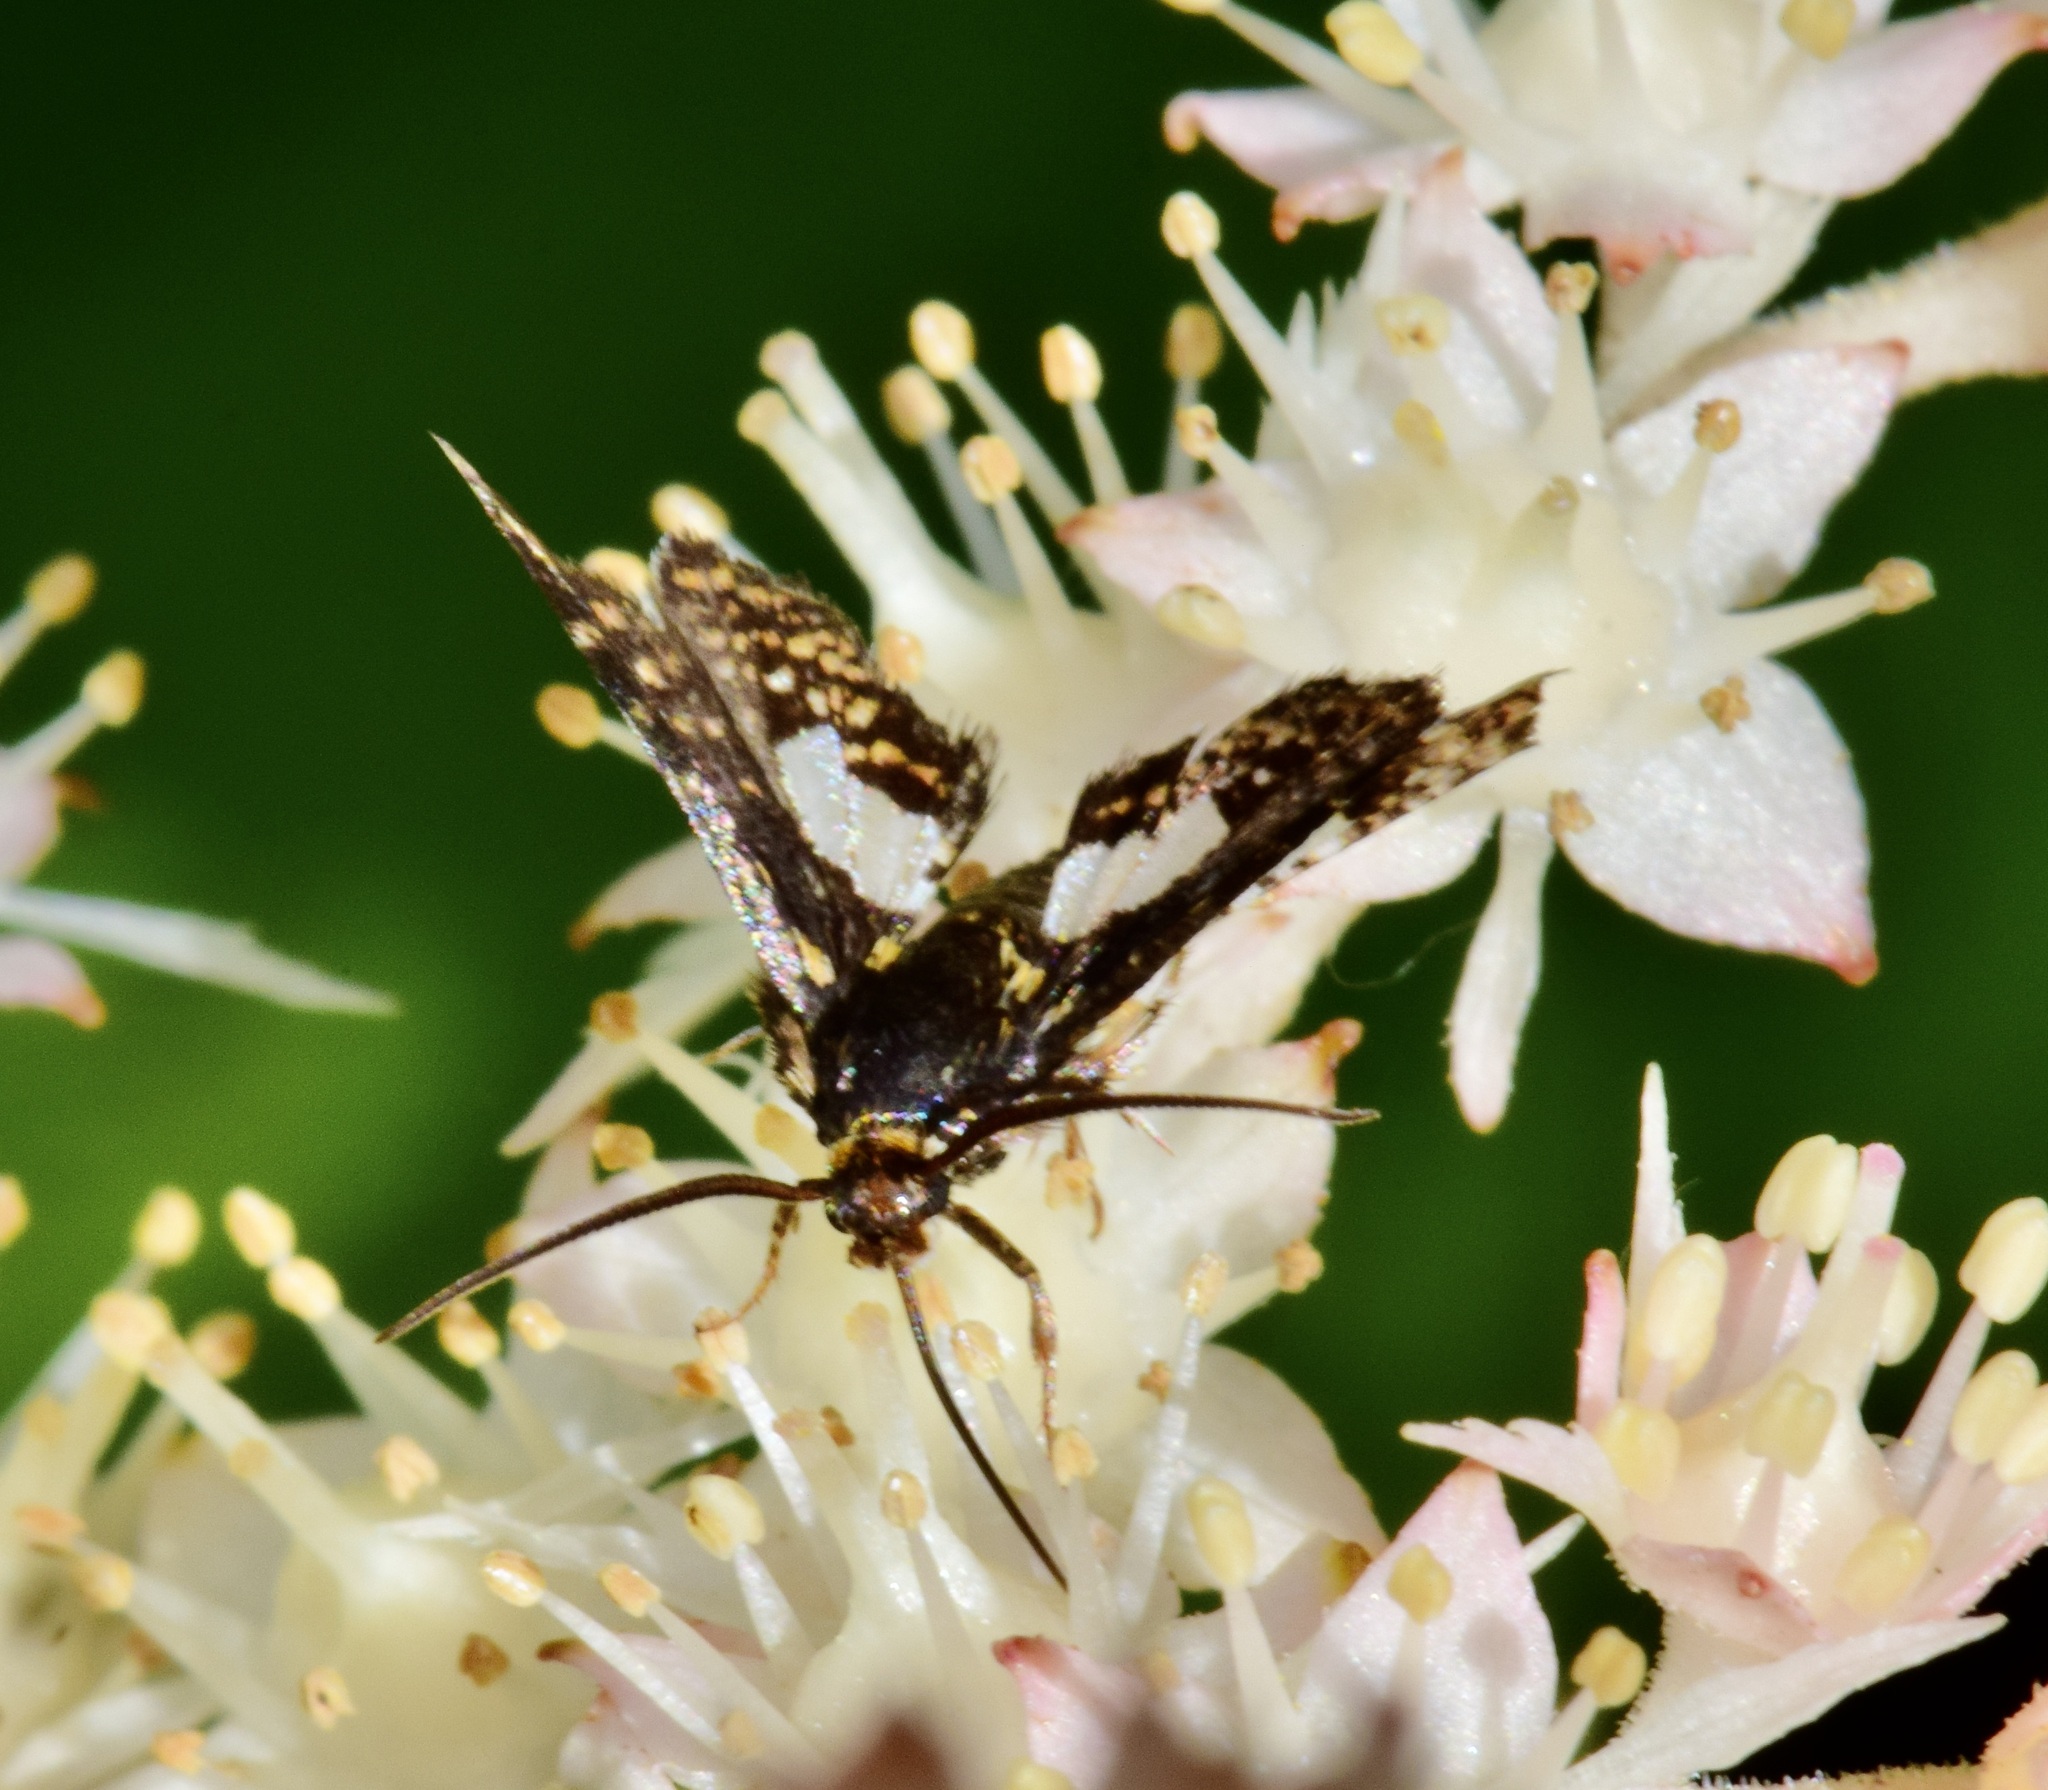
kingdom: Animalia
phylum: Arthropoda
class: Insecta
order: Lepidoptera
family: Thyrididae
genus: Thyris
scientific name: Thyris maculata
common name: Spotted thyris moth
